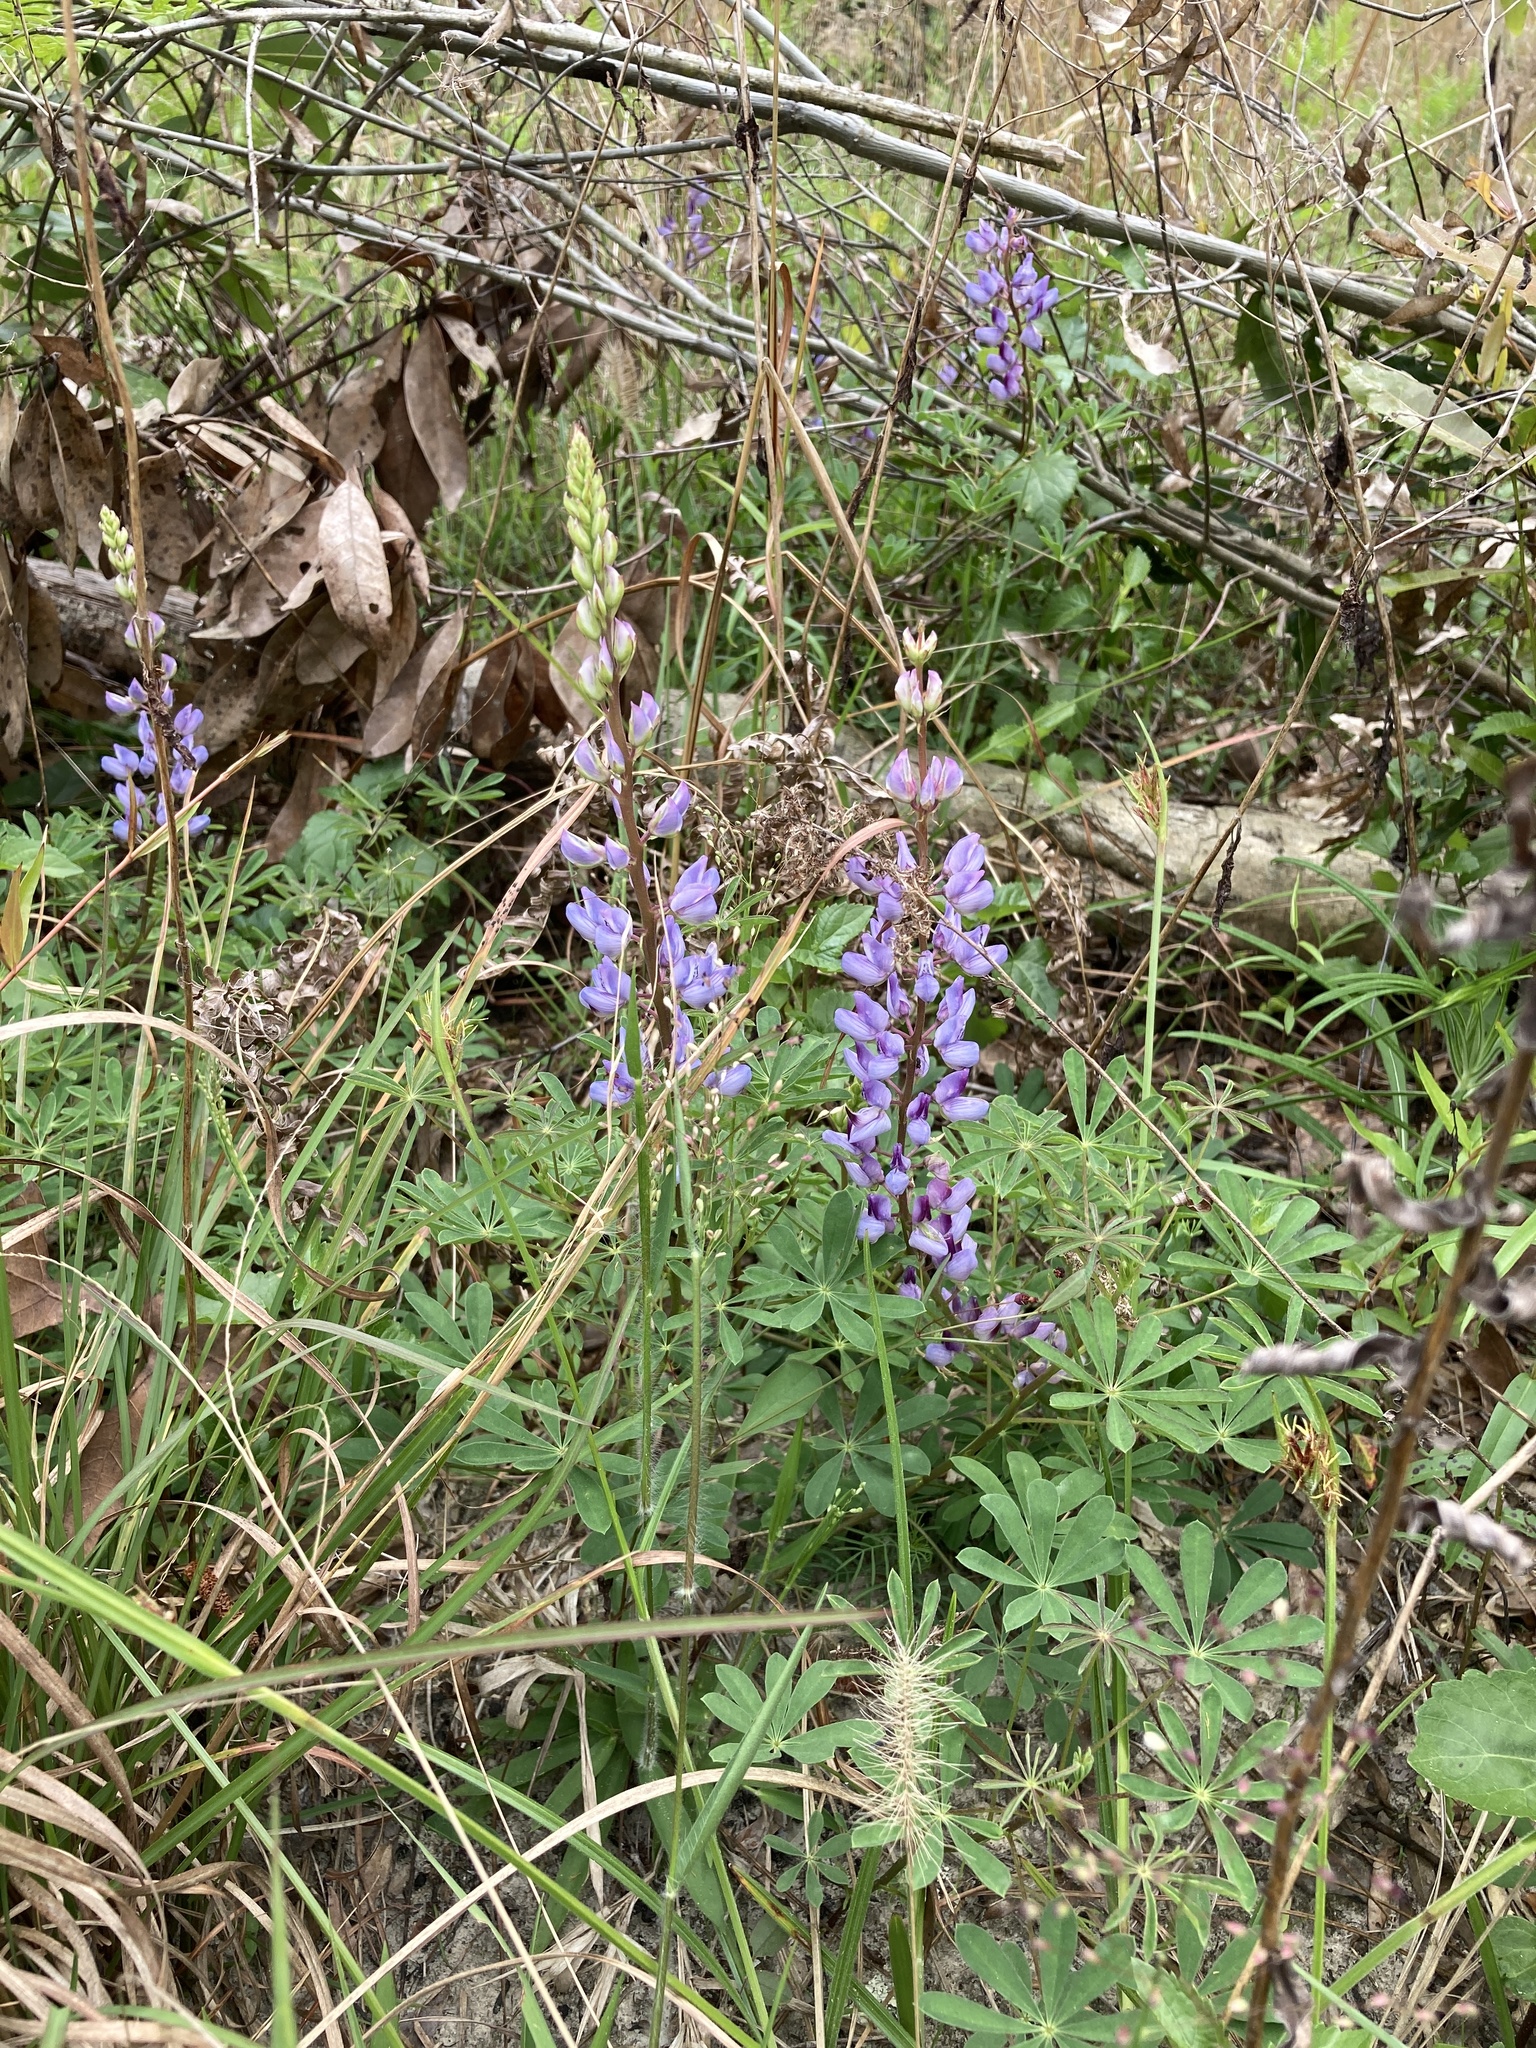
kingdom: Plantae
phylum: Tracheophyta
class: Magnoliopsida
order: Fabales
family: Fabaceae
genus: Lupinus
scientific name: Lupinus perennis
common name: Sundial lupine
